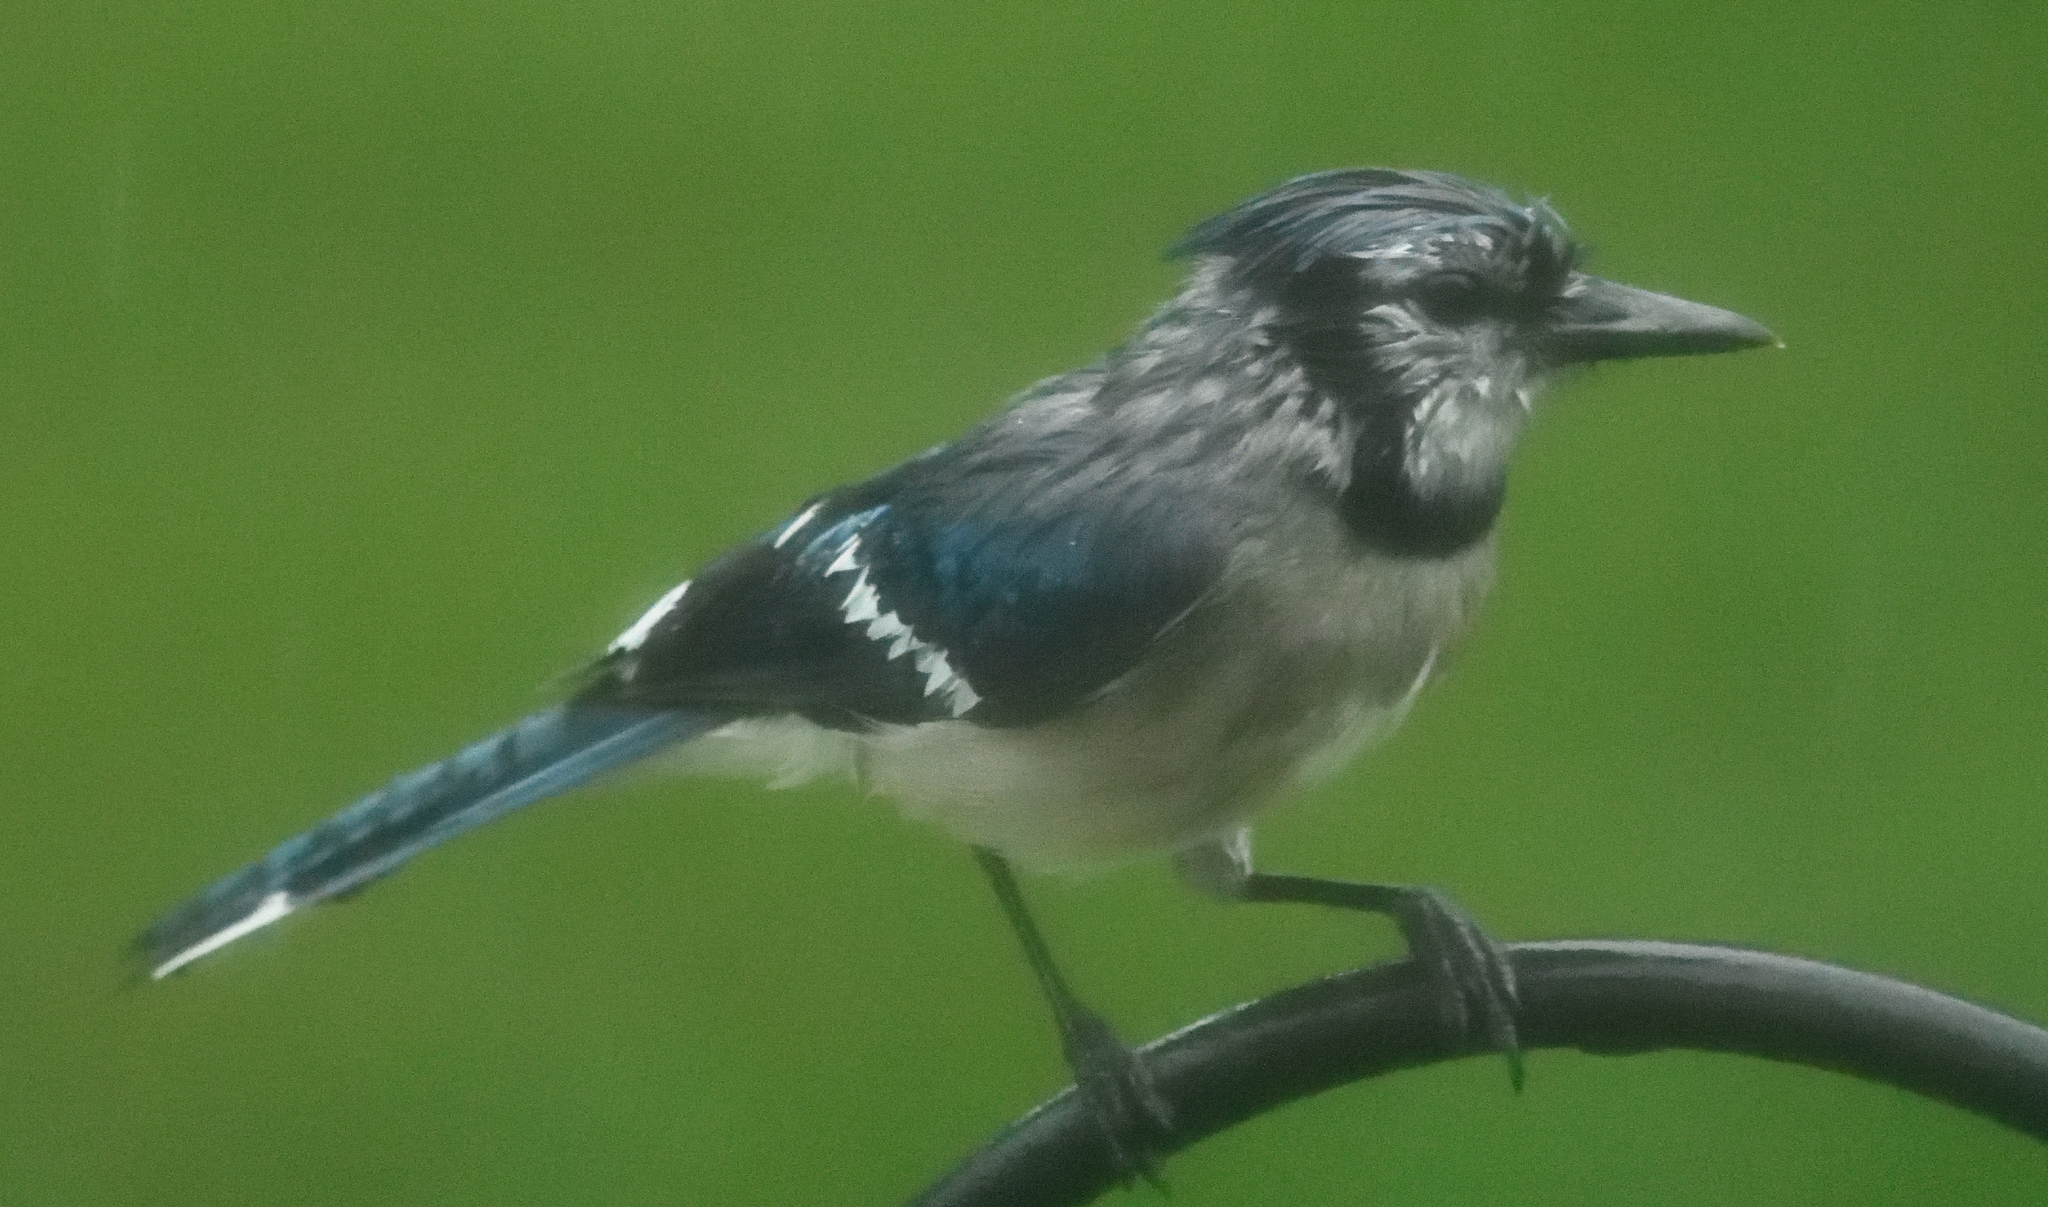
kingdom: Animalia
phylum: Chordata
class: Aves
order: Passeriformes
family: Corvidae
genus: Cyanocitta
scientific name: Cyanocitta cristata
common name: Blue jay
